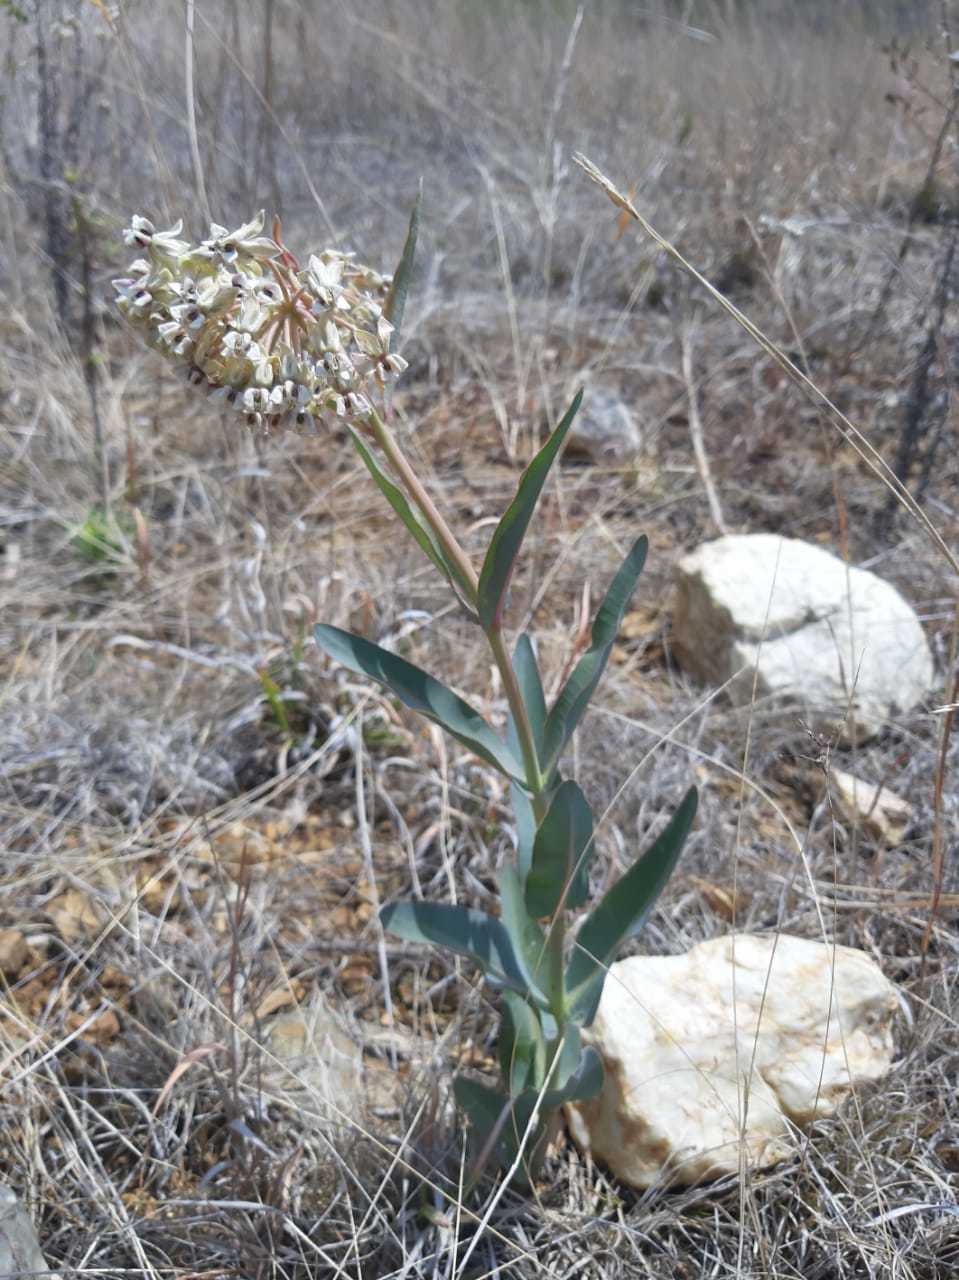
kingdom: Plantae
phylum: Tracheophyta
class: Magnoliopsida
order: Gentianales
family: Apocynaceae
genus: Asclepias
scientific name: Asclepias glaucescens
